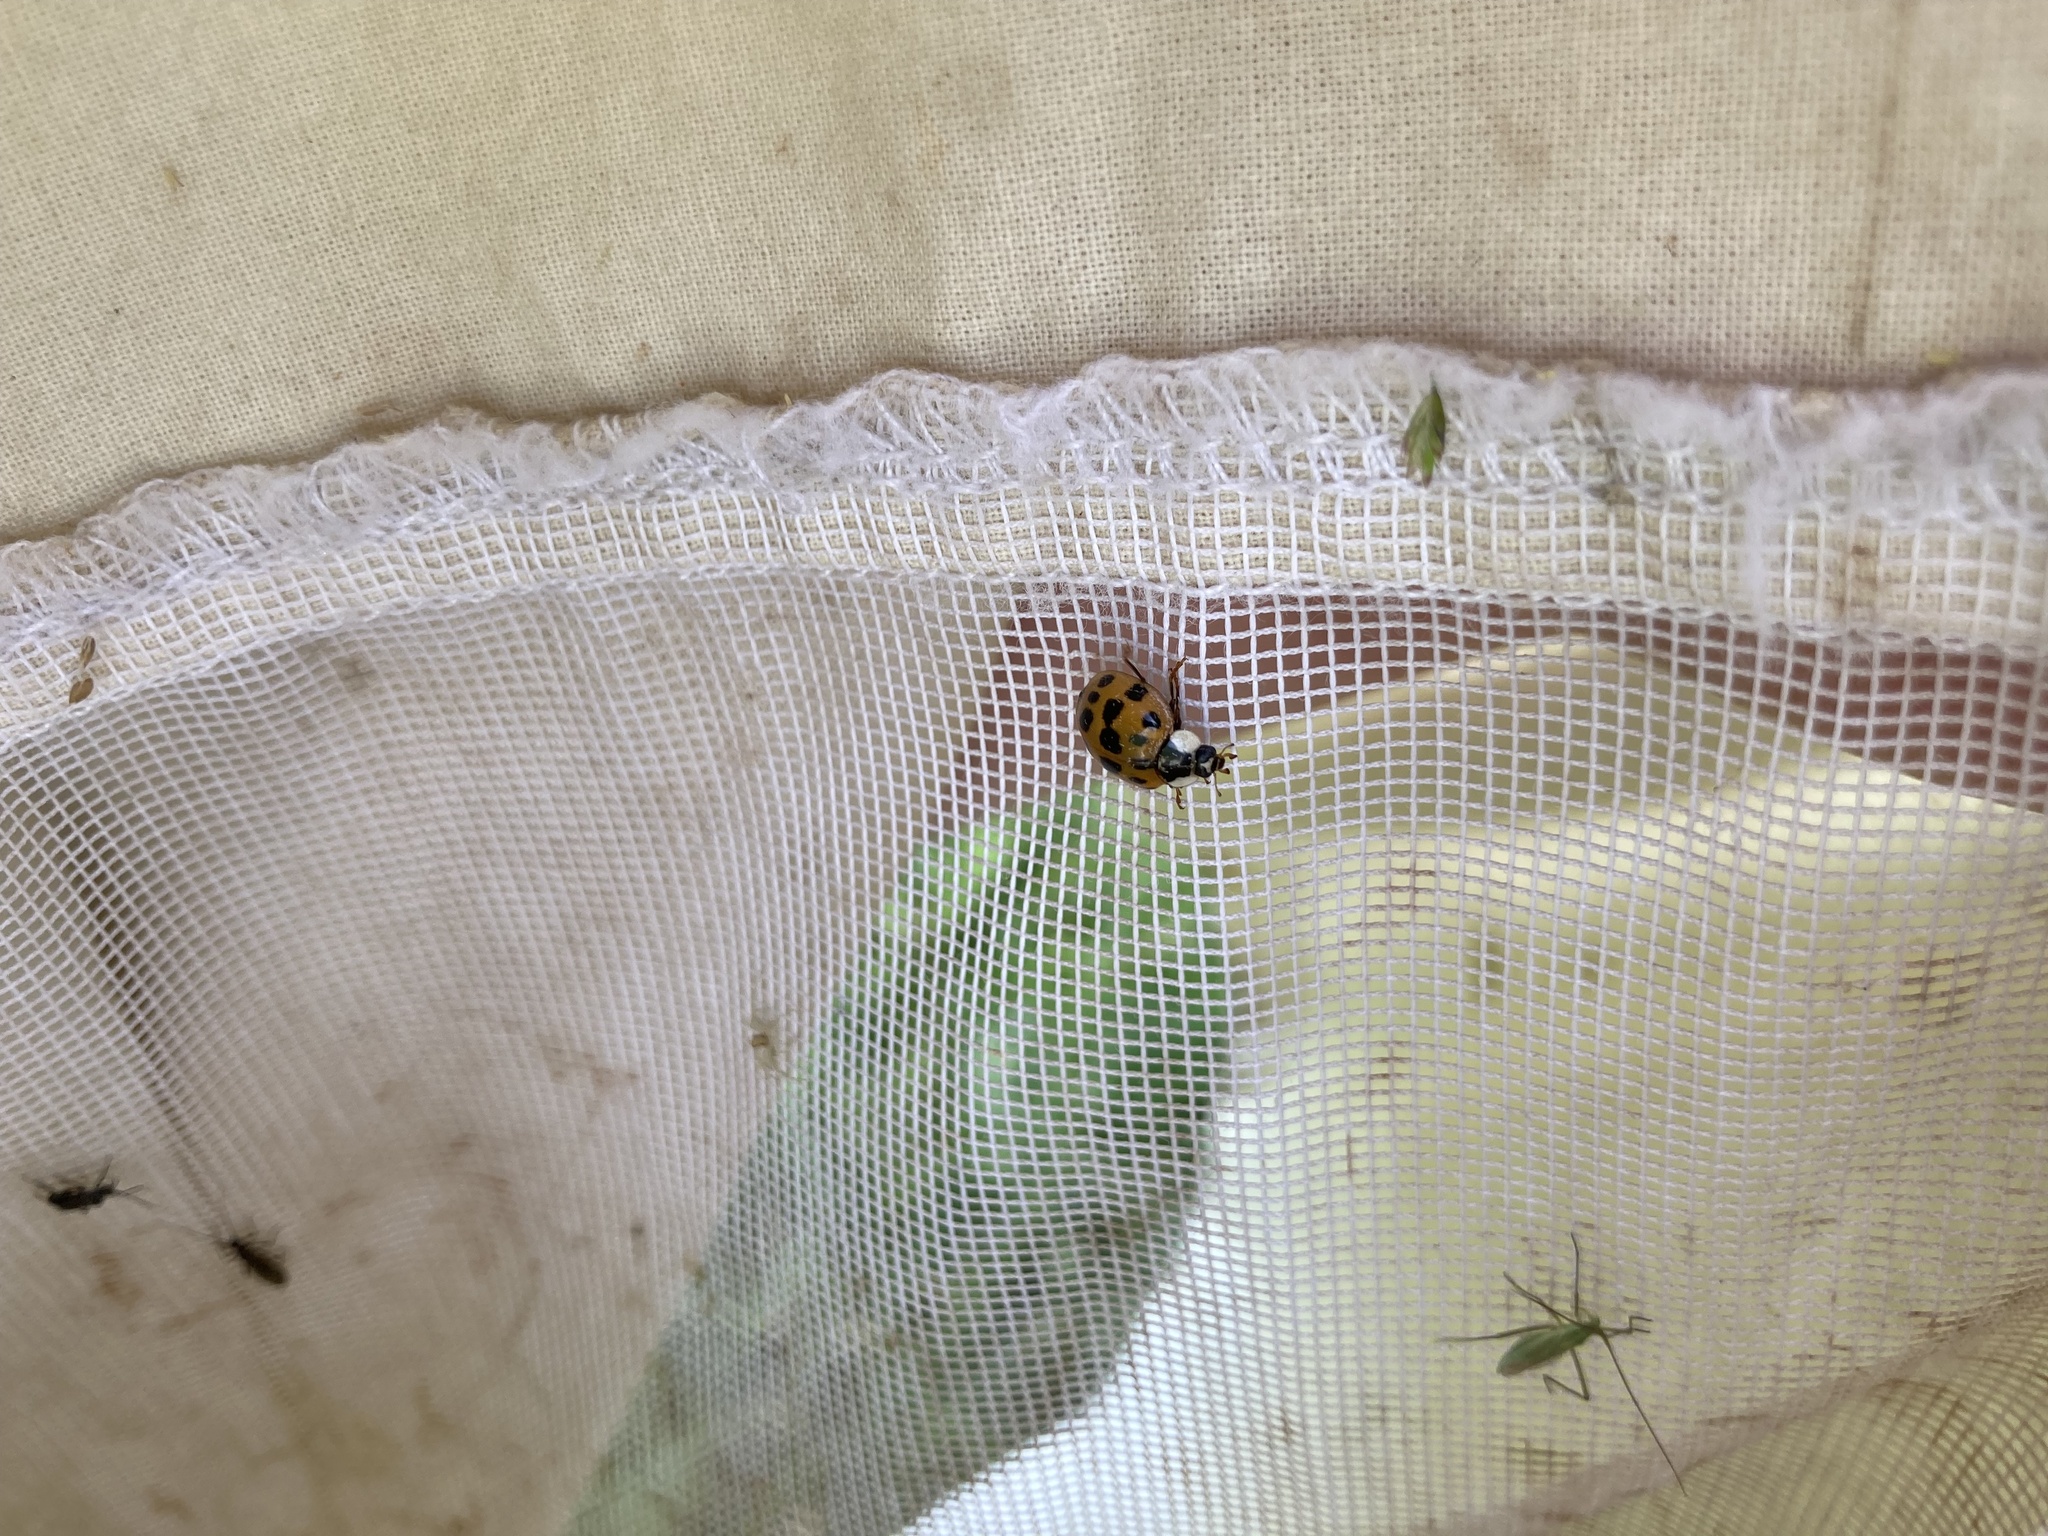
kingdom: Animalia
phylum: Arthropoda
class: Insecta
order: Coleoptera
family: Coccinellidae
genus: Harmonia
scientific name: Harmonia axyridis
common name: Harlequin ladybird
